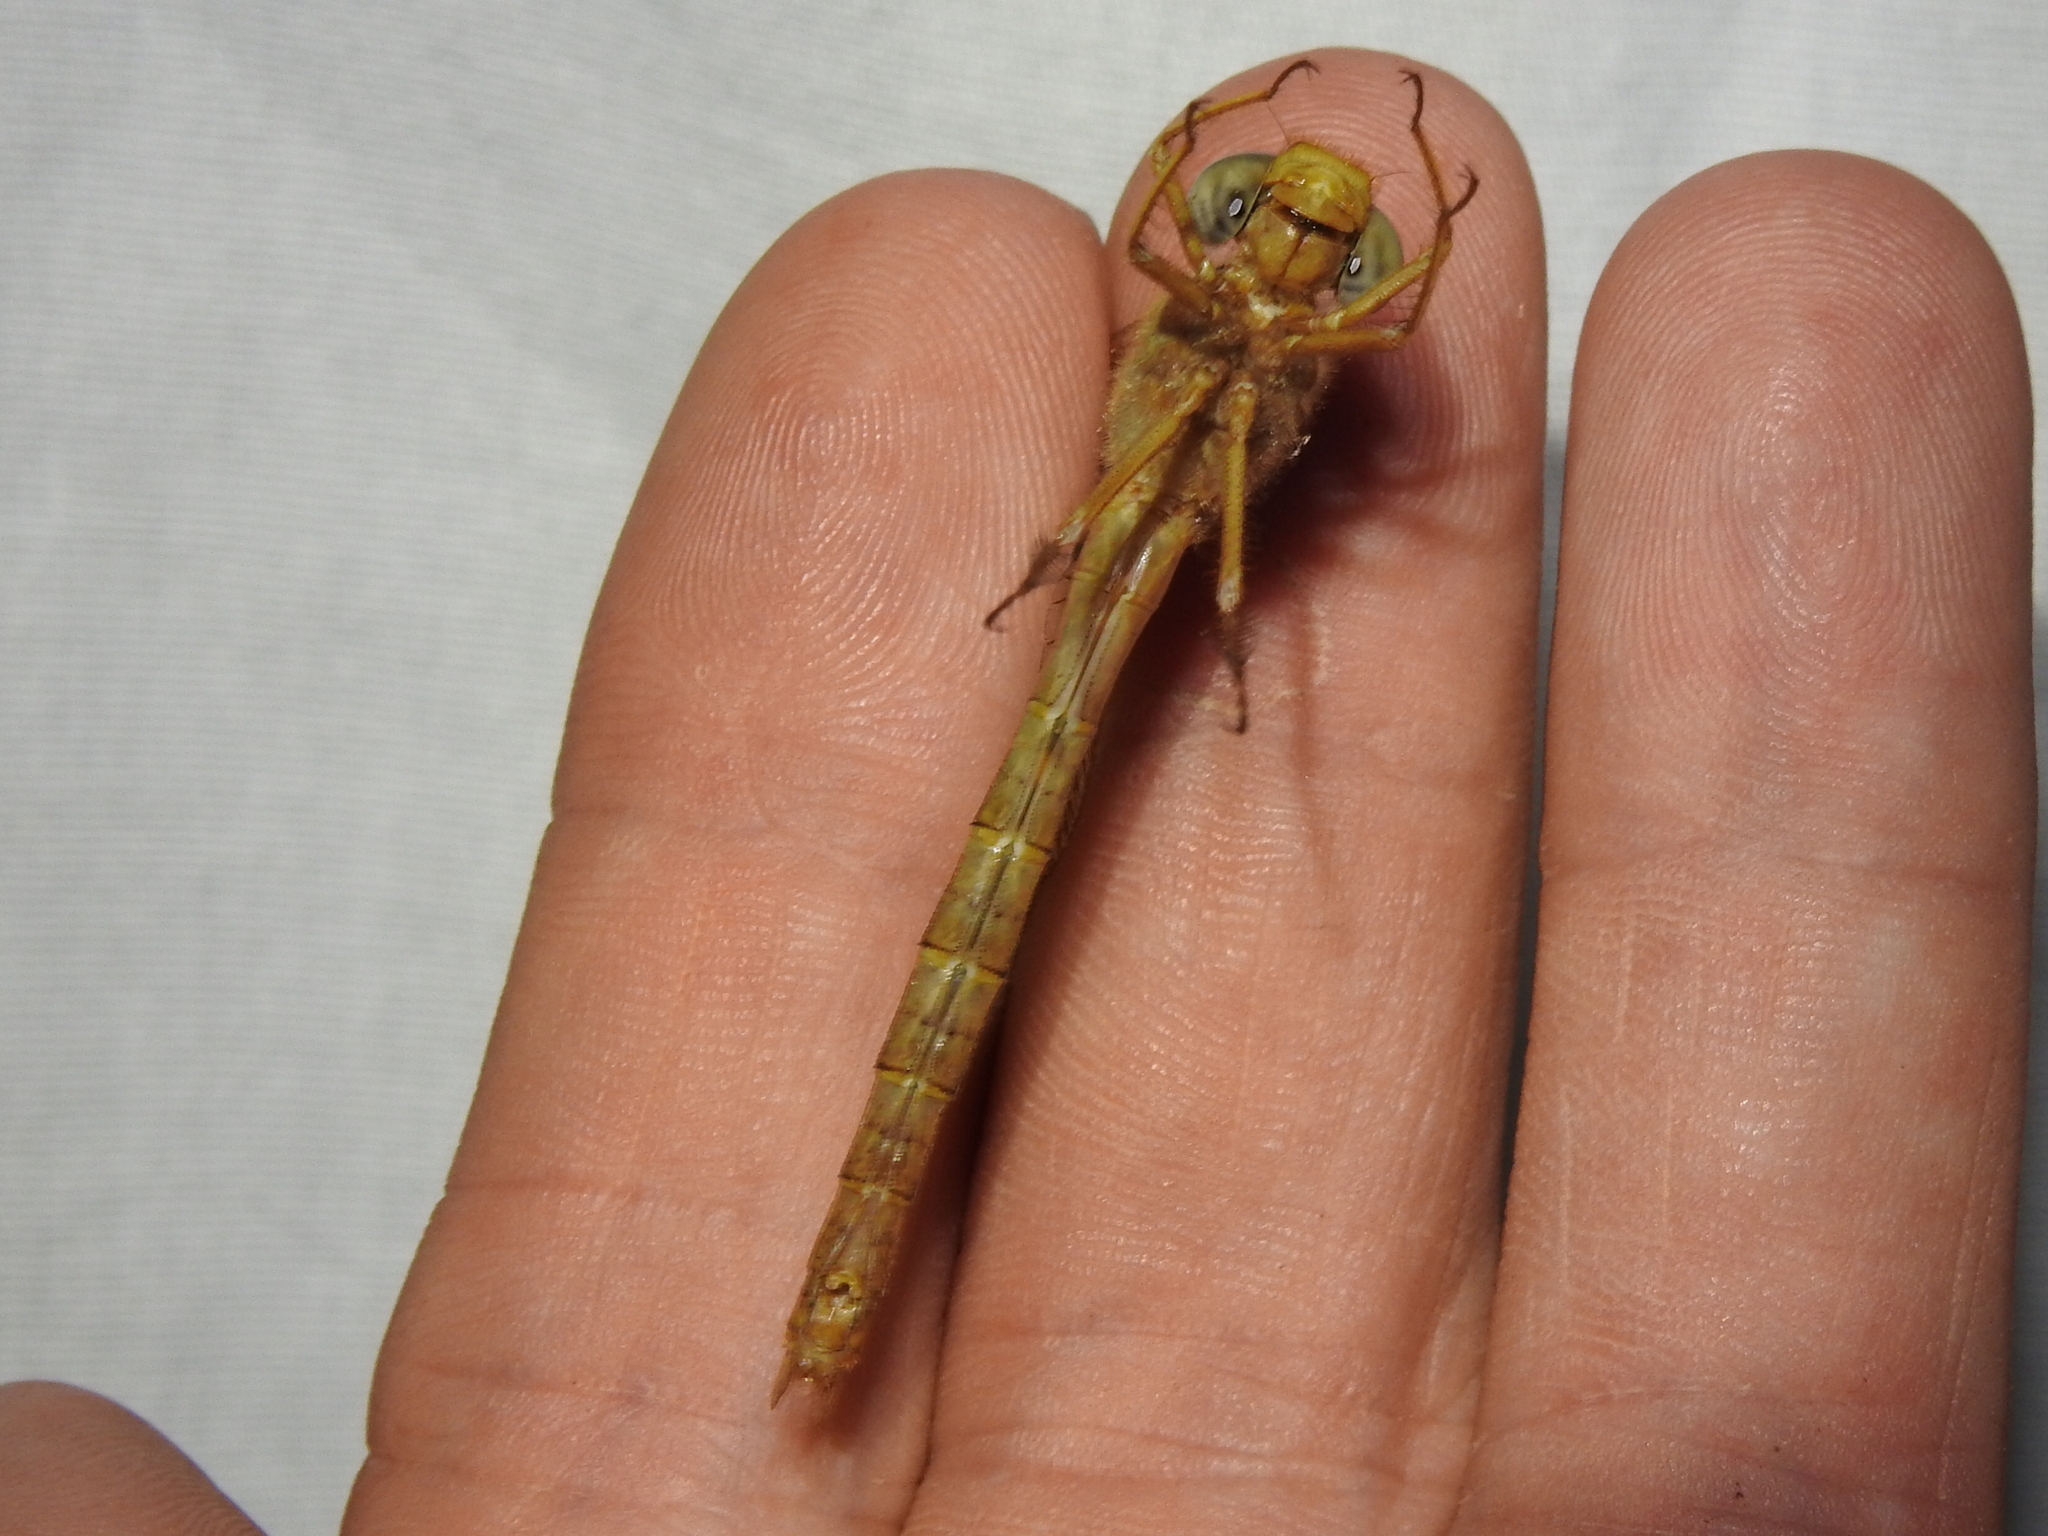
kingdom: Animalia
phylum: Arthropoda
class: Insecta
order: Odonata
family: Corduliidae
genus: Neurocordulia
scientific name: Neurocordulia xanthosoma
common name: Orange shadowdragon
